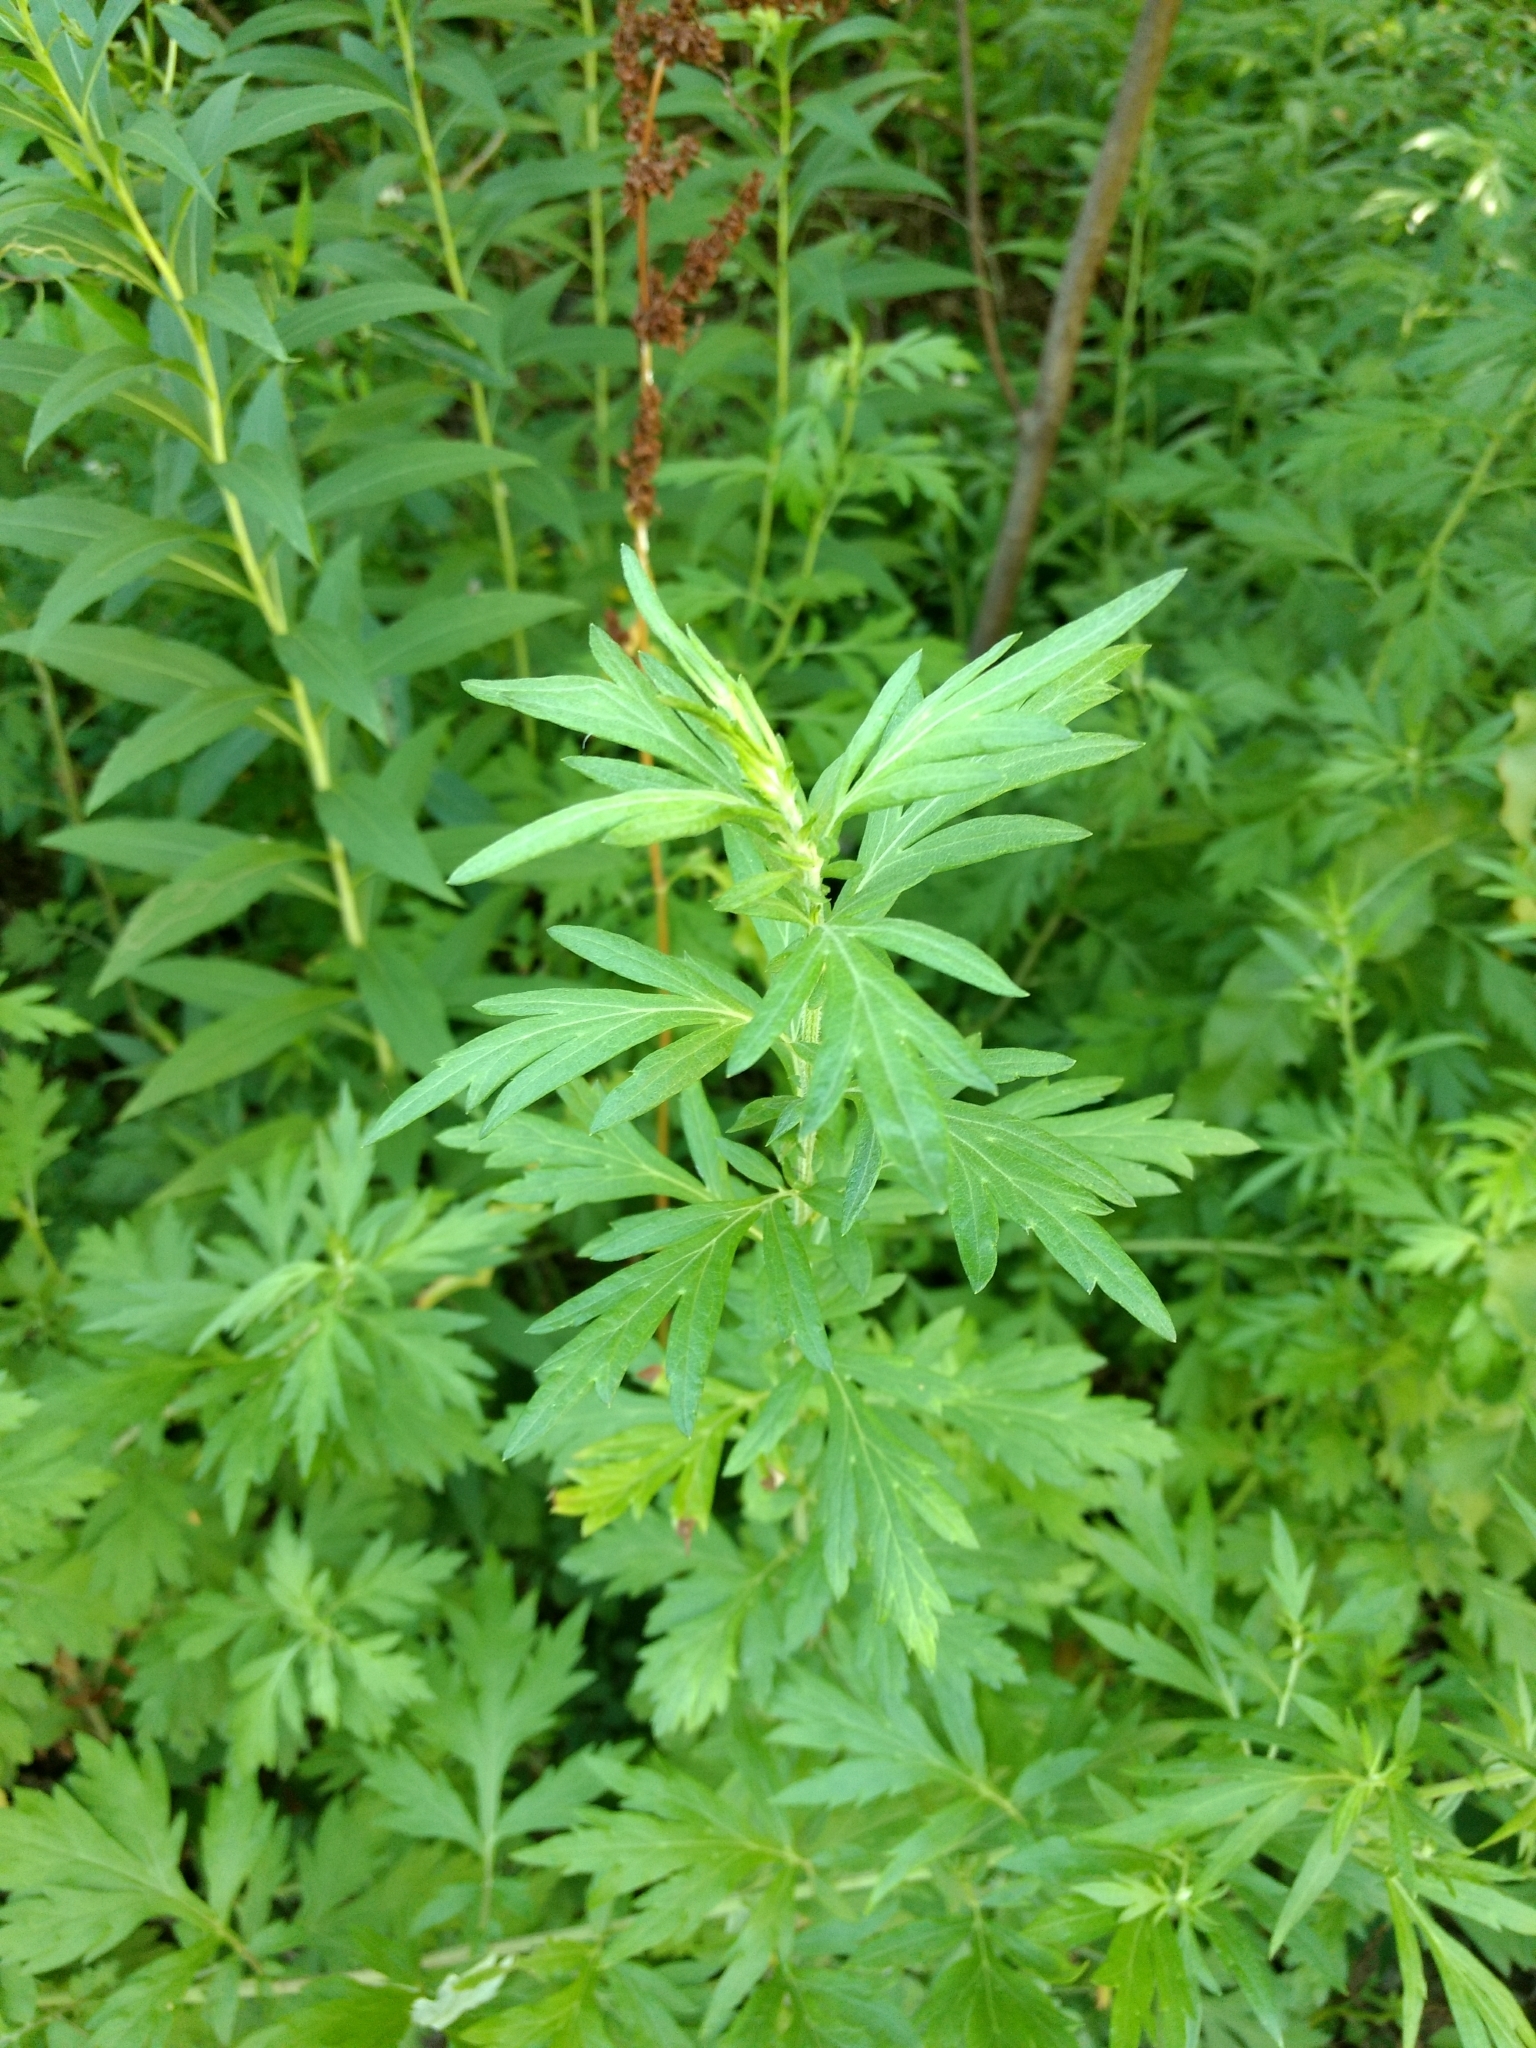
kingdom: Plantae
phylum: Tracheophyta
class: Magnoliopsida
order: Asterales
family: Asteraceae
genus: Artemisia
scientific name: Artemisia vulgaris
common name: Mugwort
